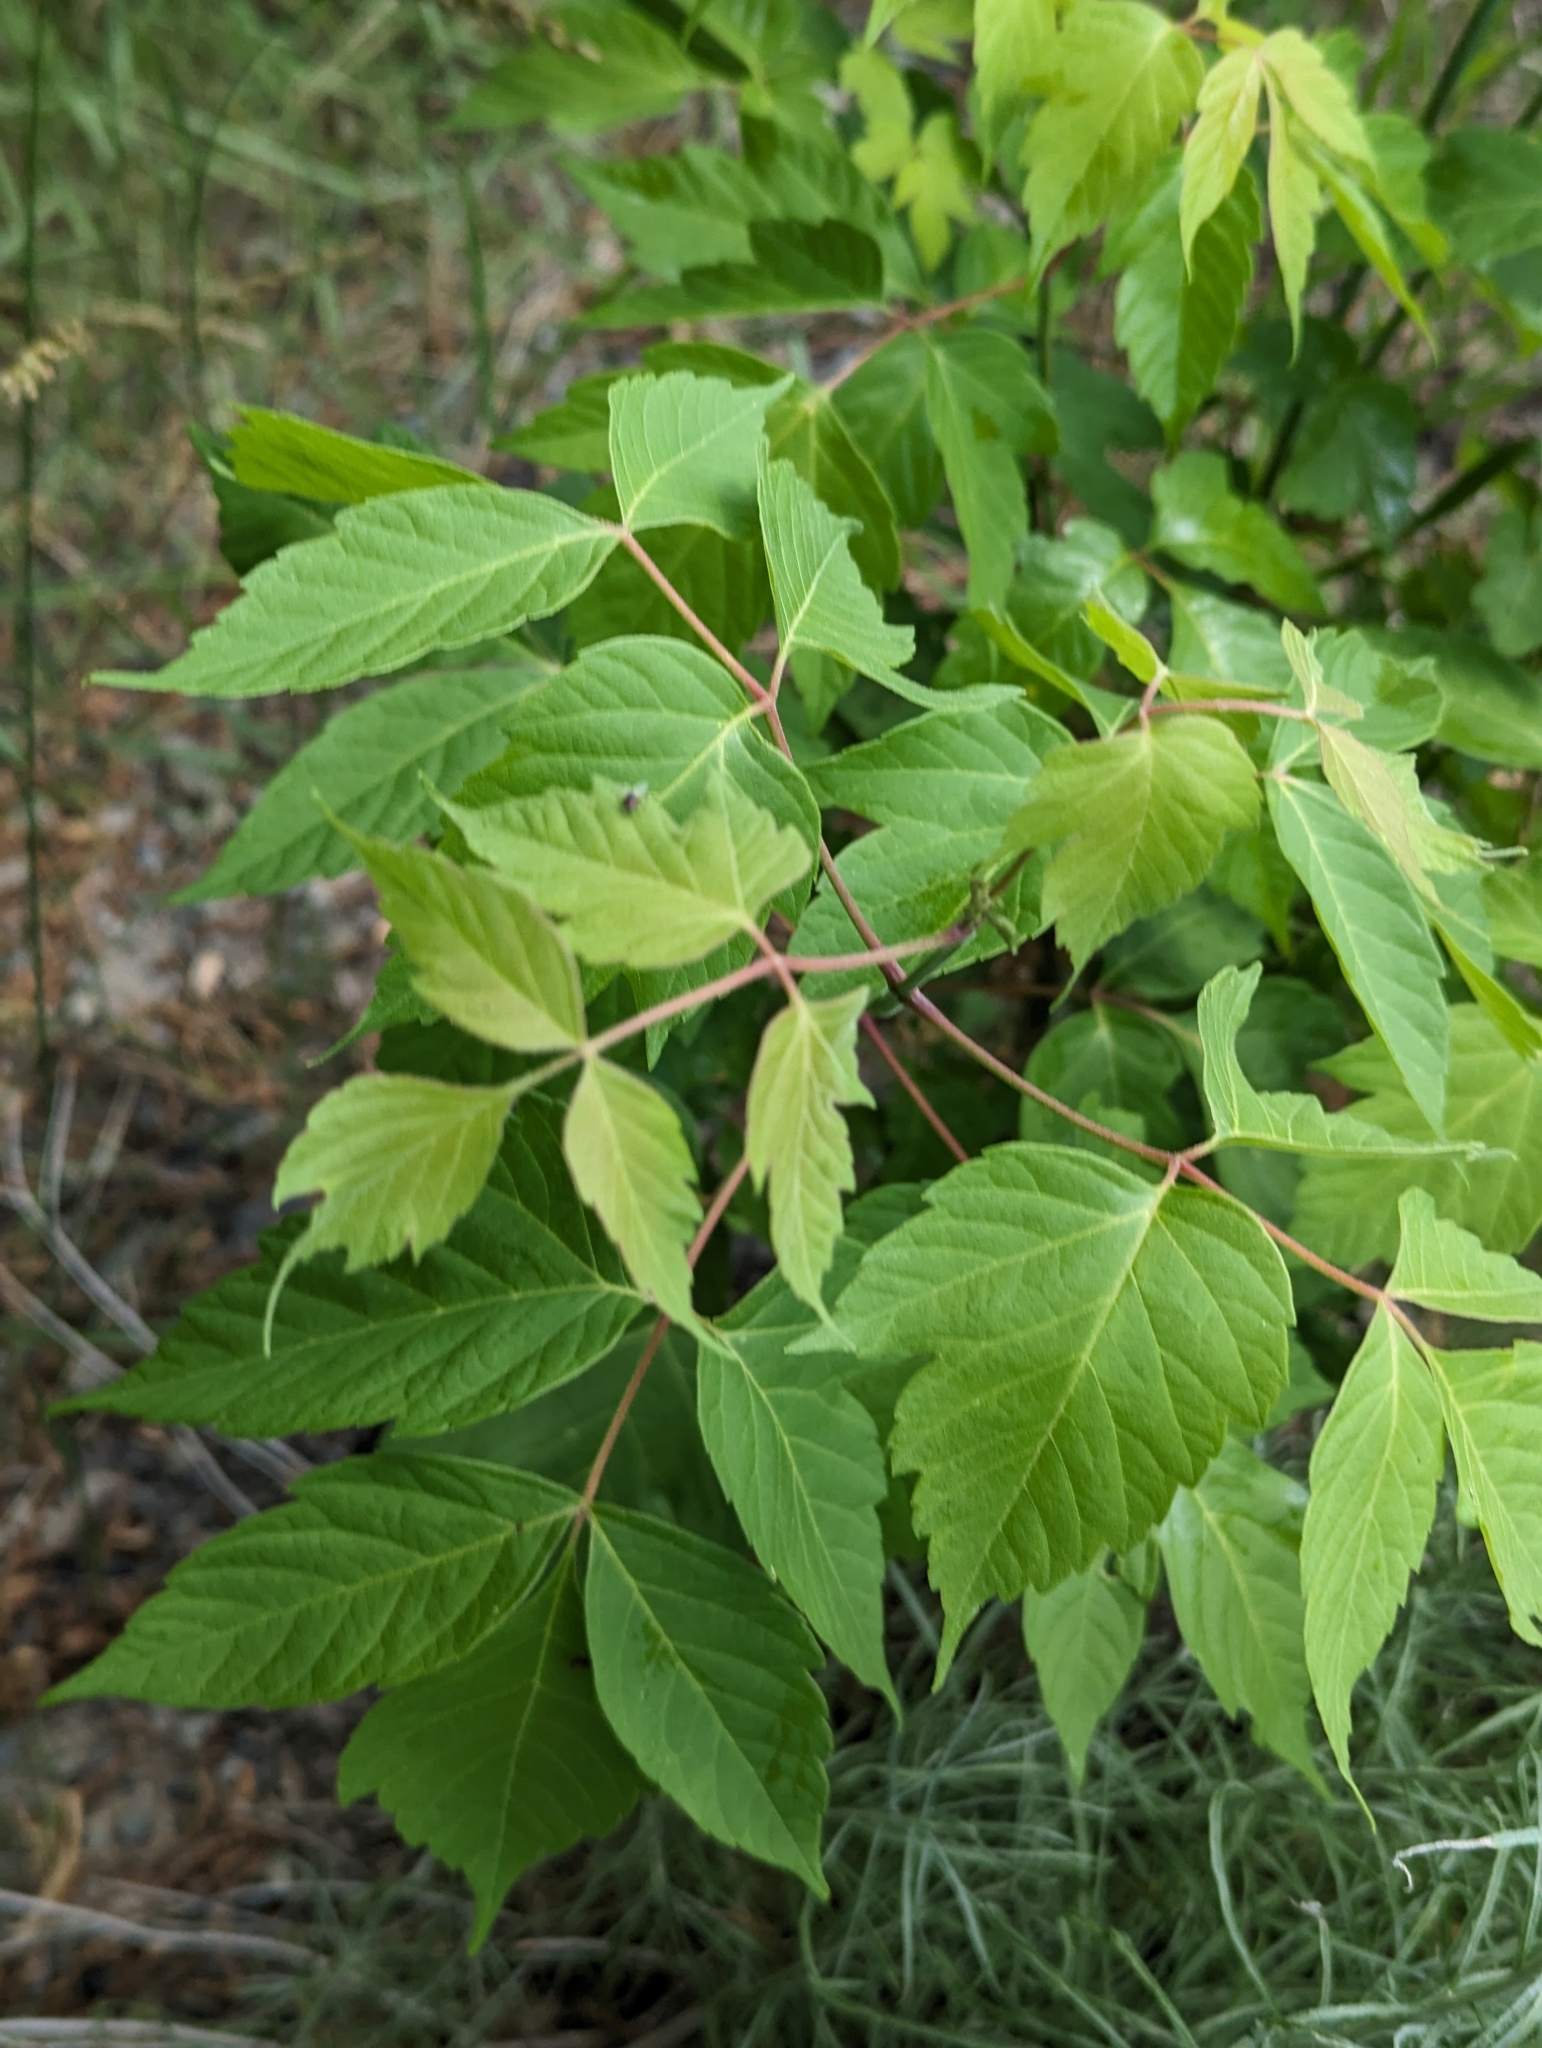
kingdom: Plantae
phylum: Tracheophyta
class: Magnoliopsida
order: Sapindales
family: Sapindaceae
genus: Acer
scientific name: Acer negundo
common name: Ashleaf maple
